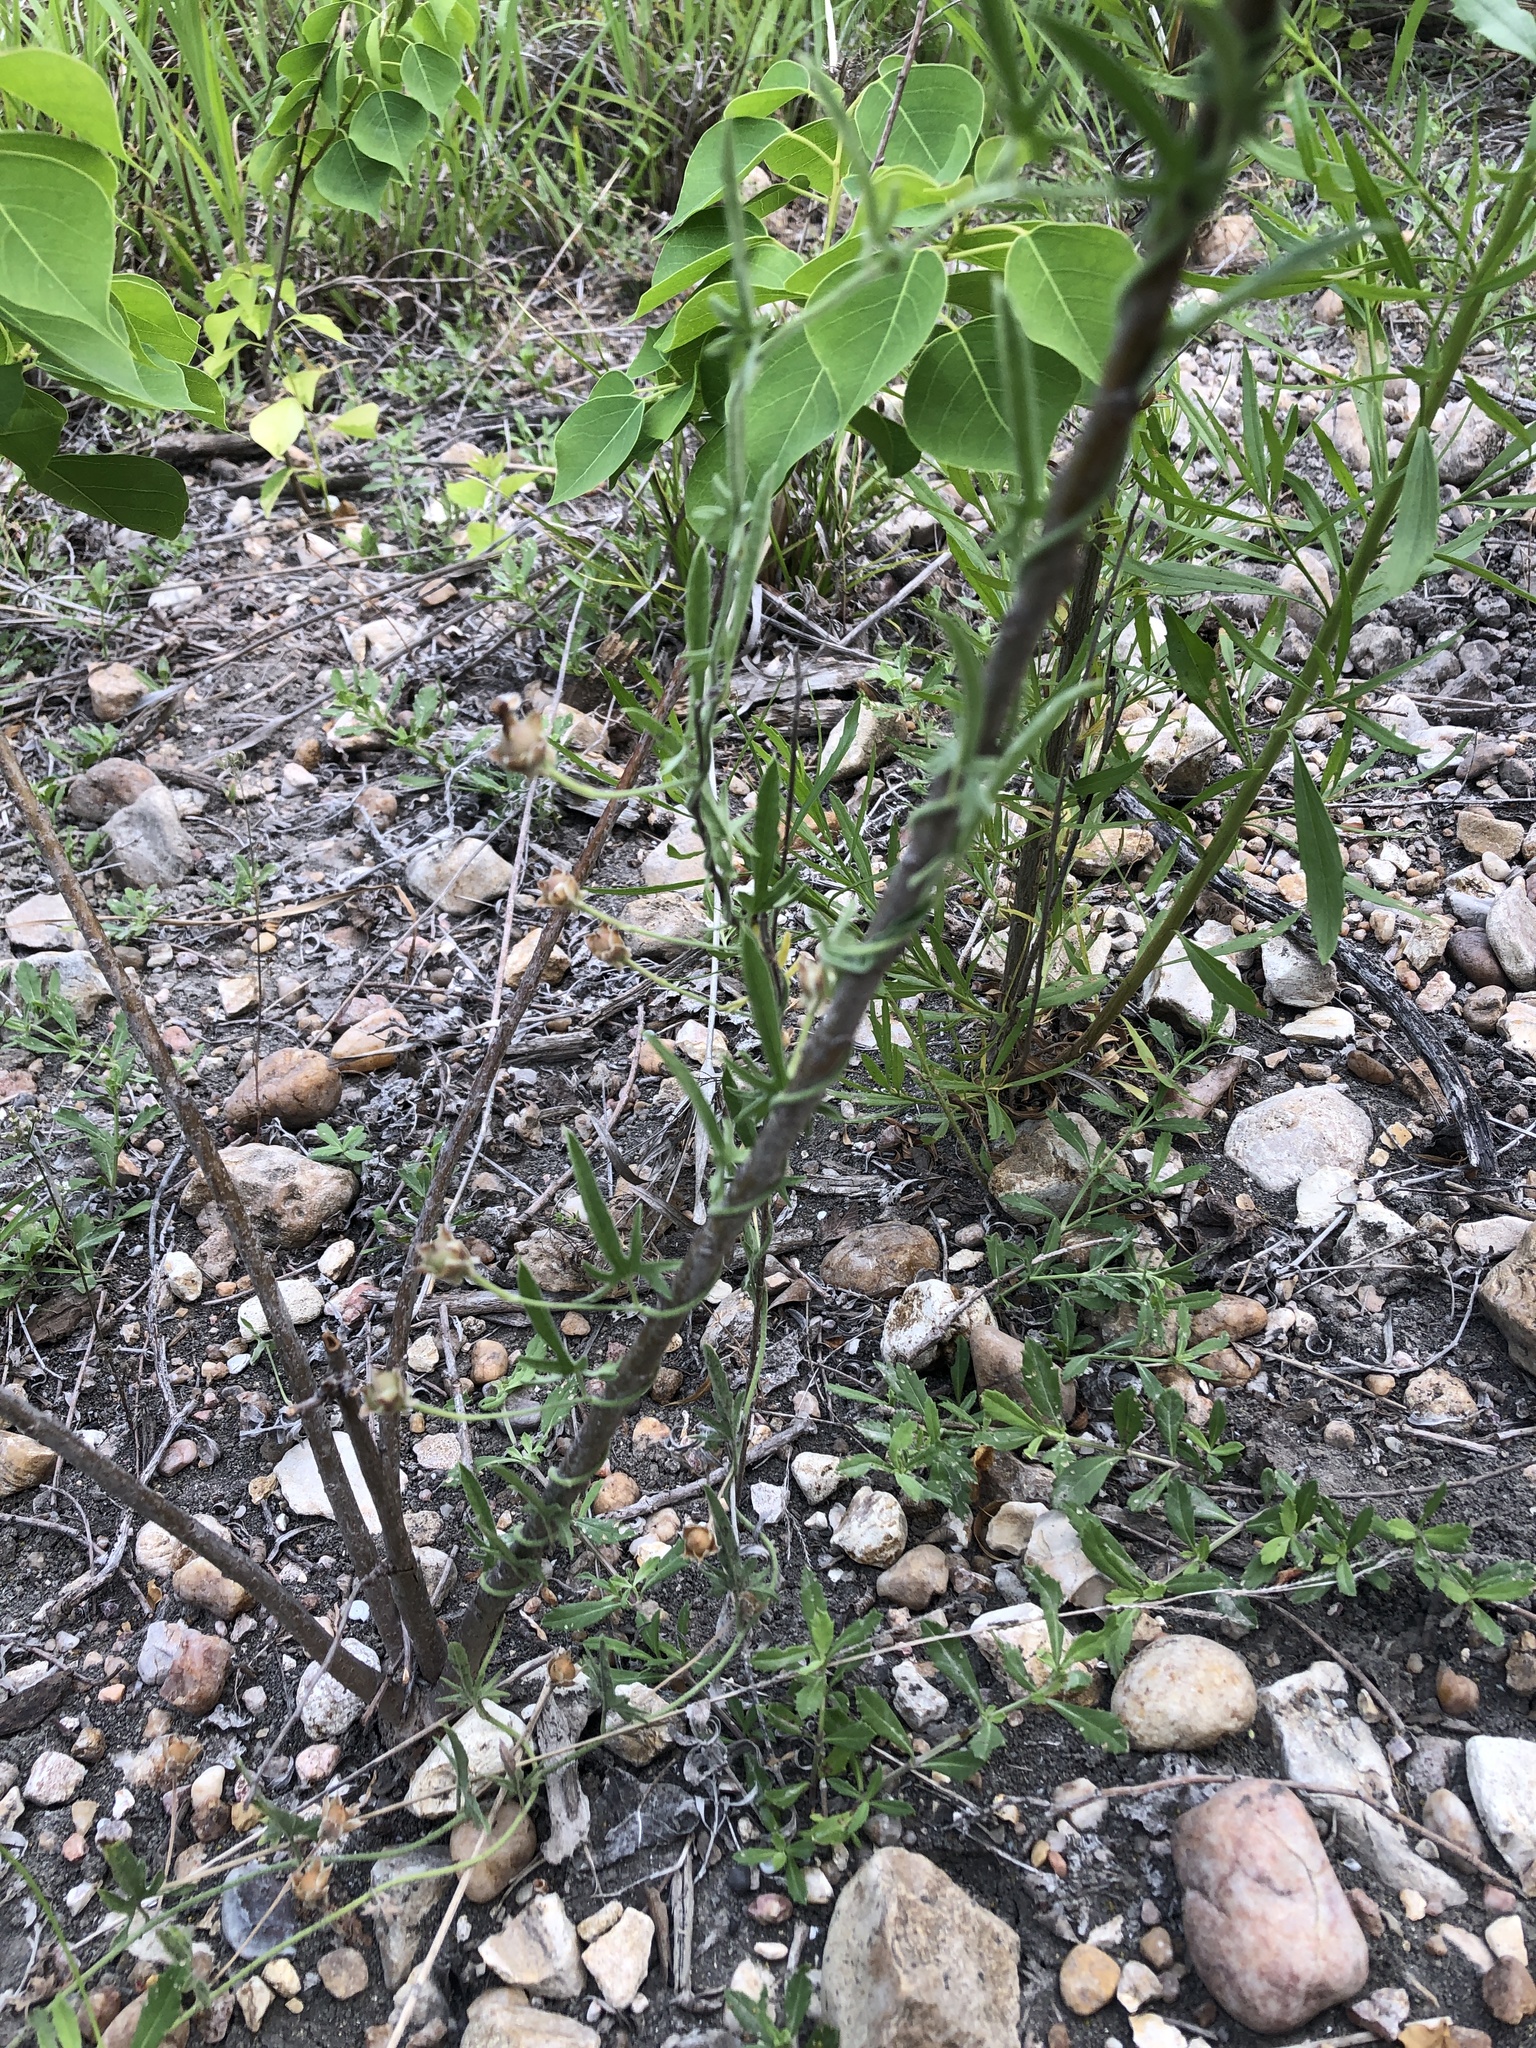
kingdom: Plantae
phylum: Tracheophyta
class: Magnoliopsida
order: Solanales
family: Convolvulaceae
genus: Convolvulus
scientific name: Convolvulus equitans
